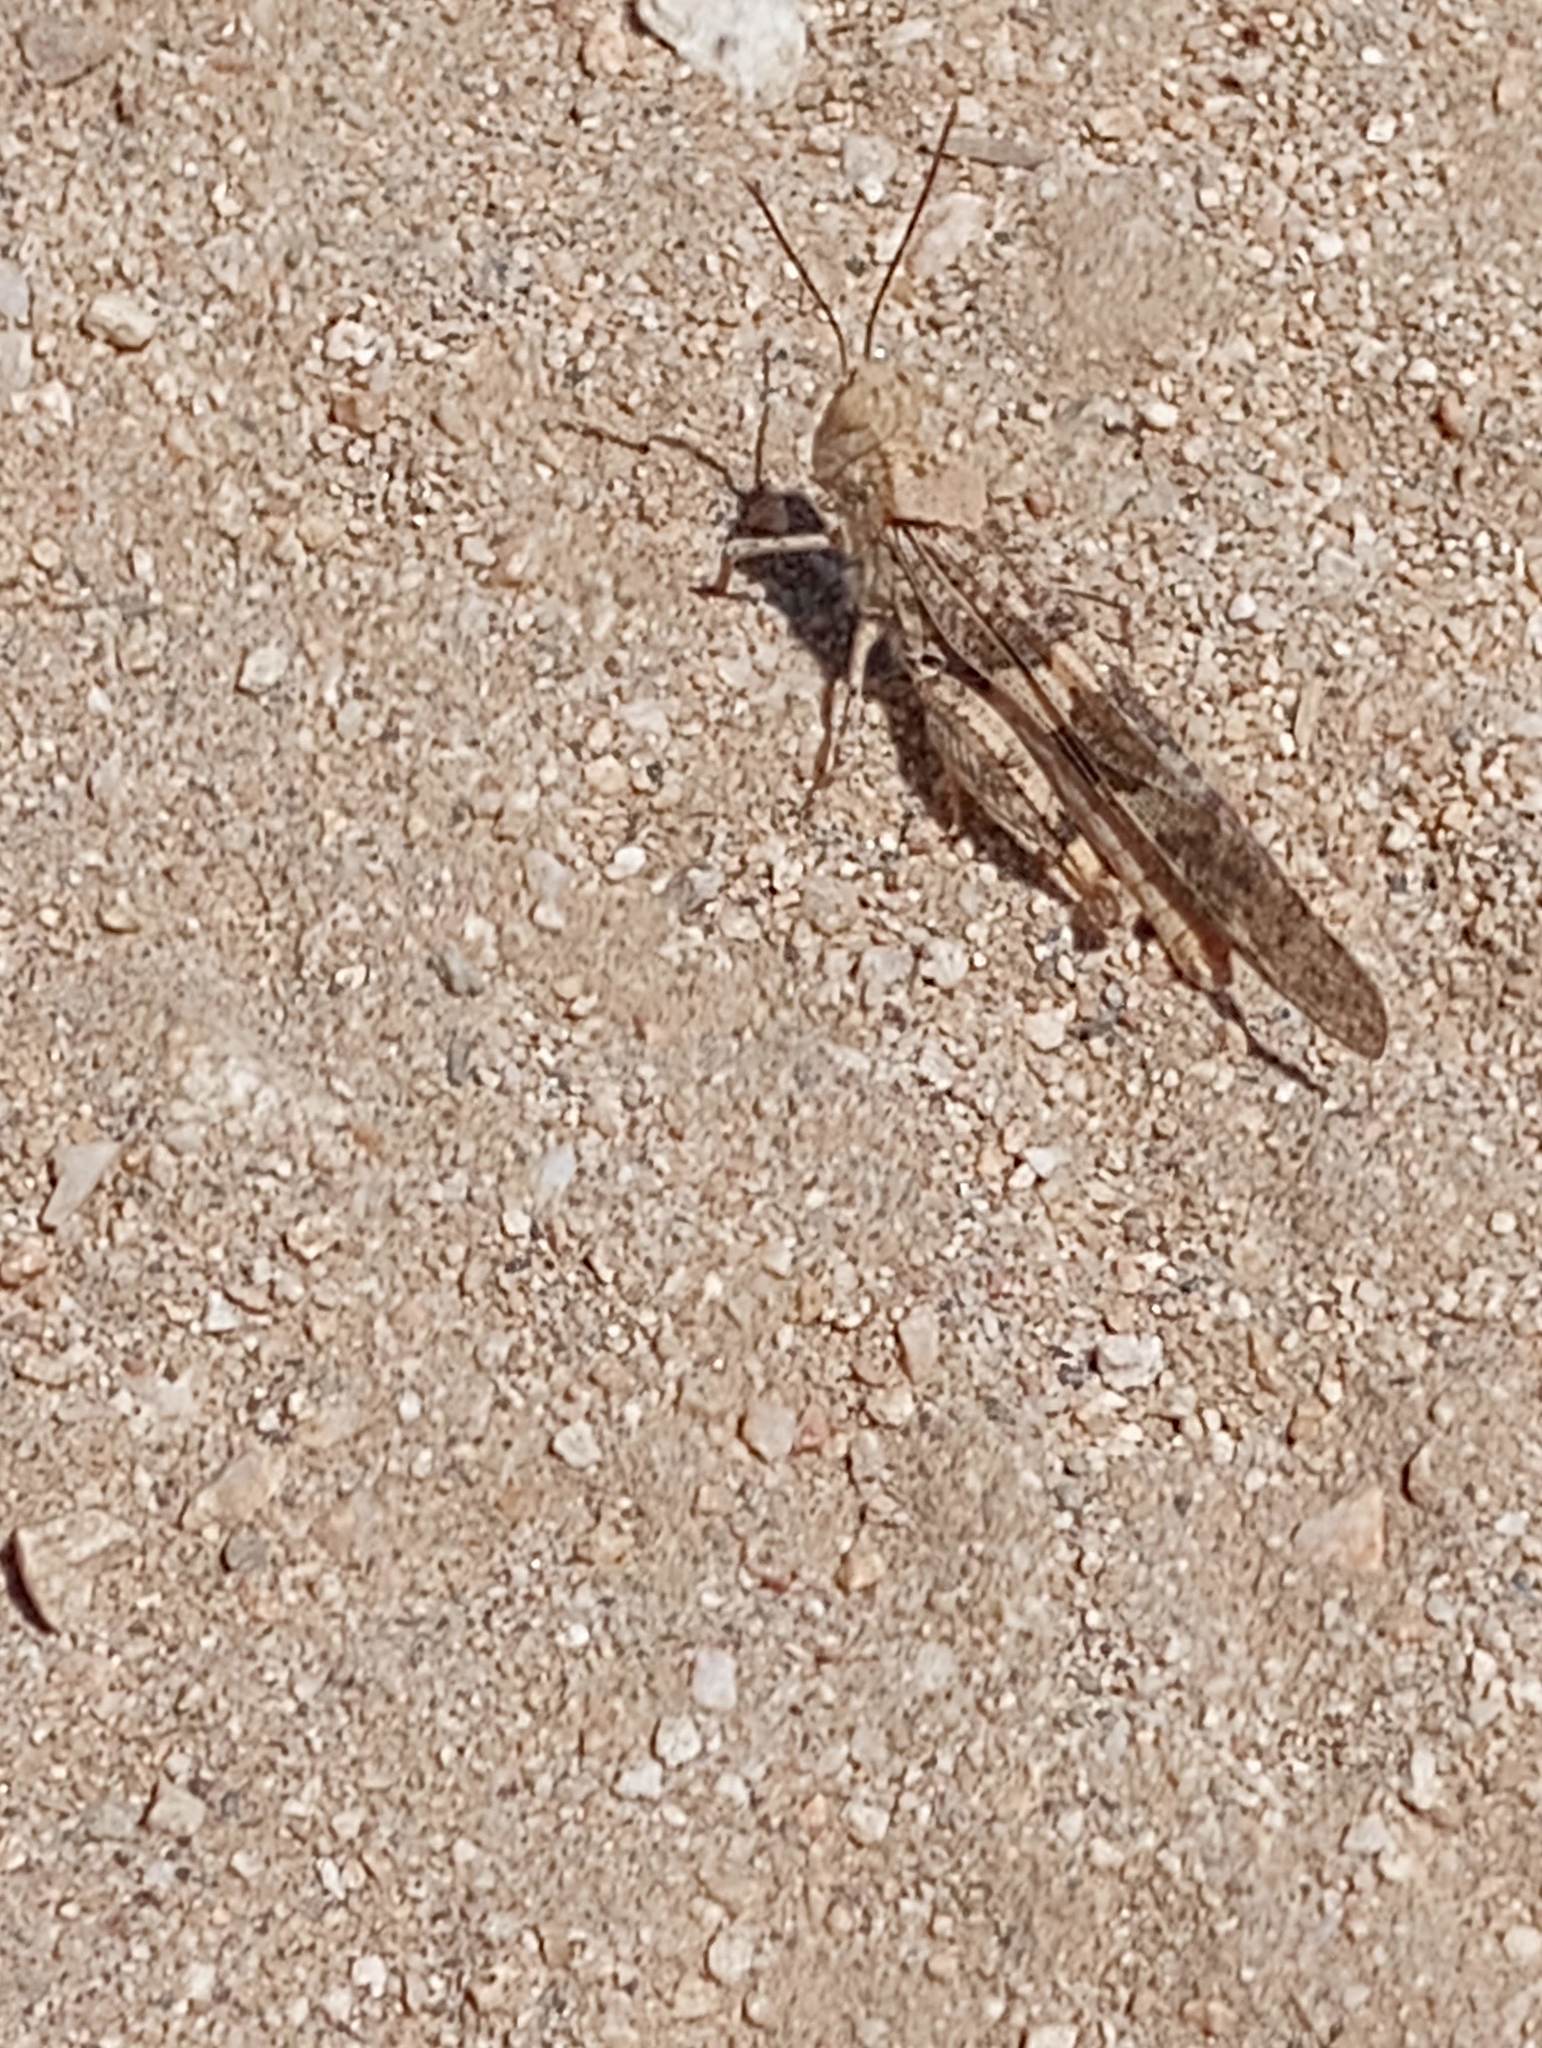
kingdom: Animalia
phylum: Arthropoda
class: Insecta
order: Orthoptera
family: Acrididae
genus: Trimerotropis
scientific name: Trimerotropis pallidipennis
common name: Pallid-winged grasshopper
